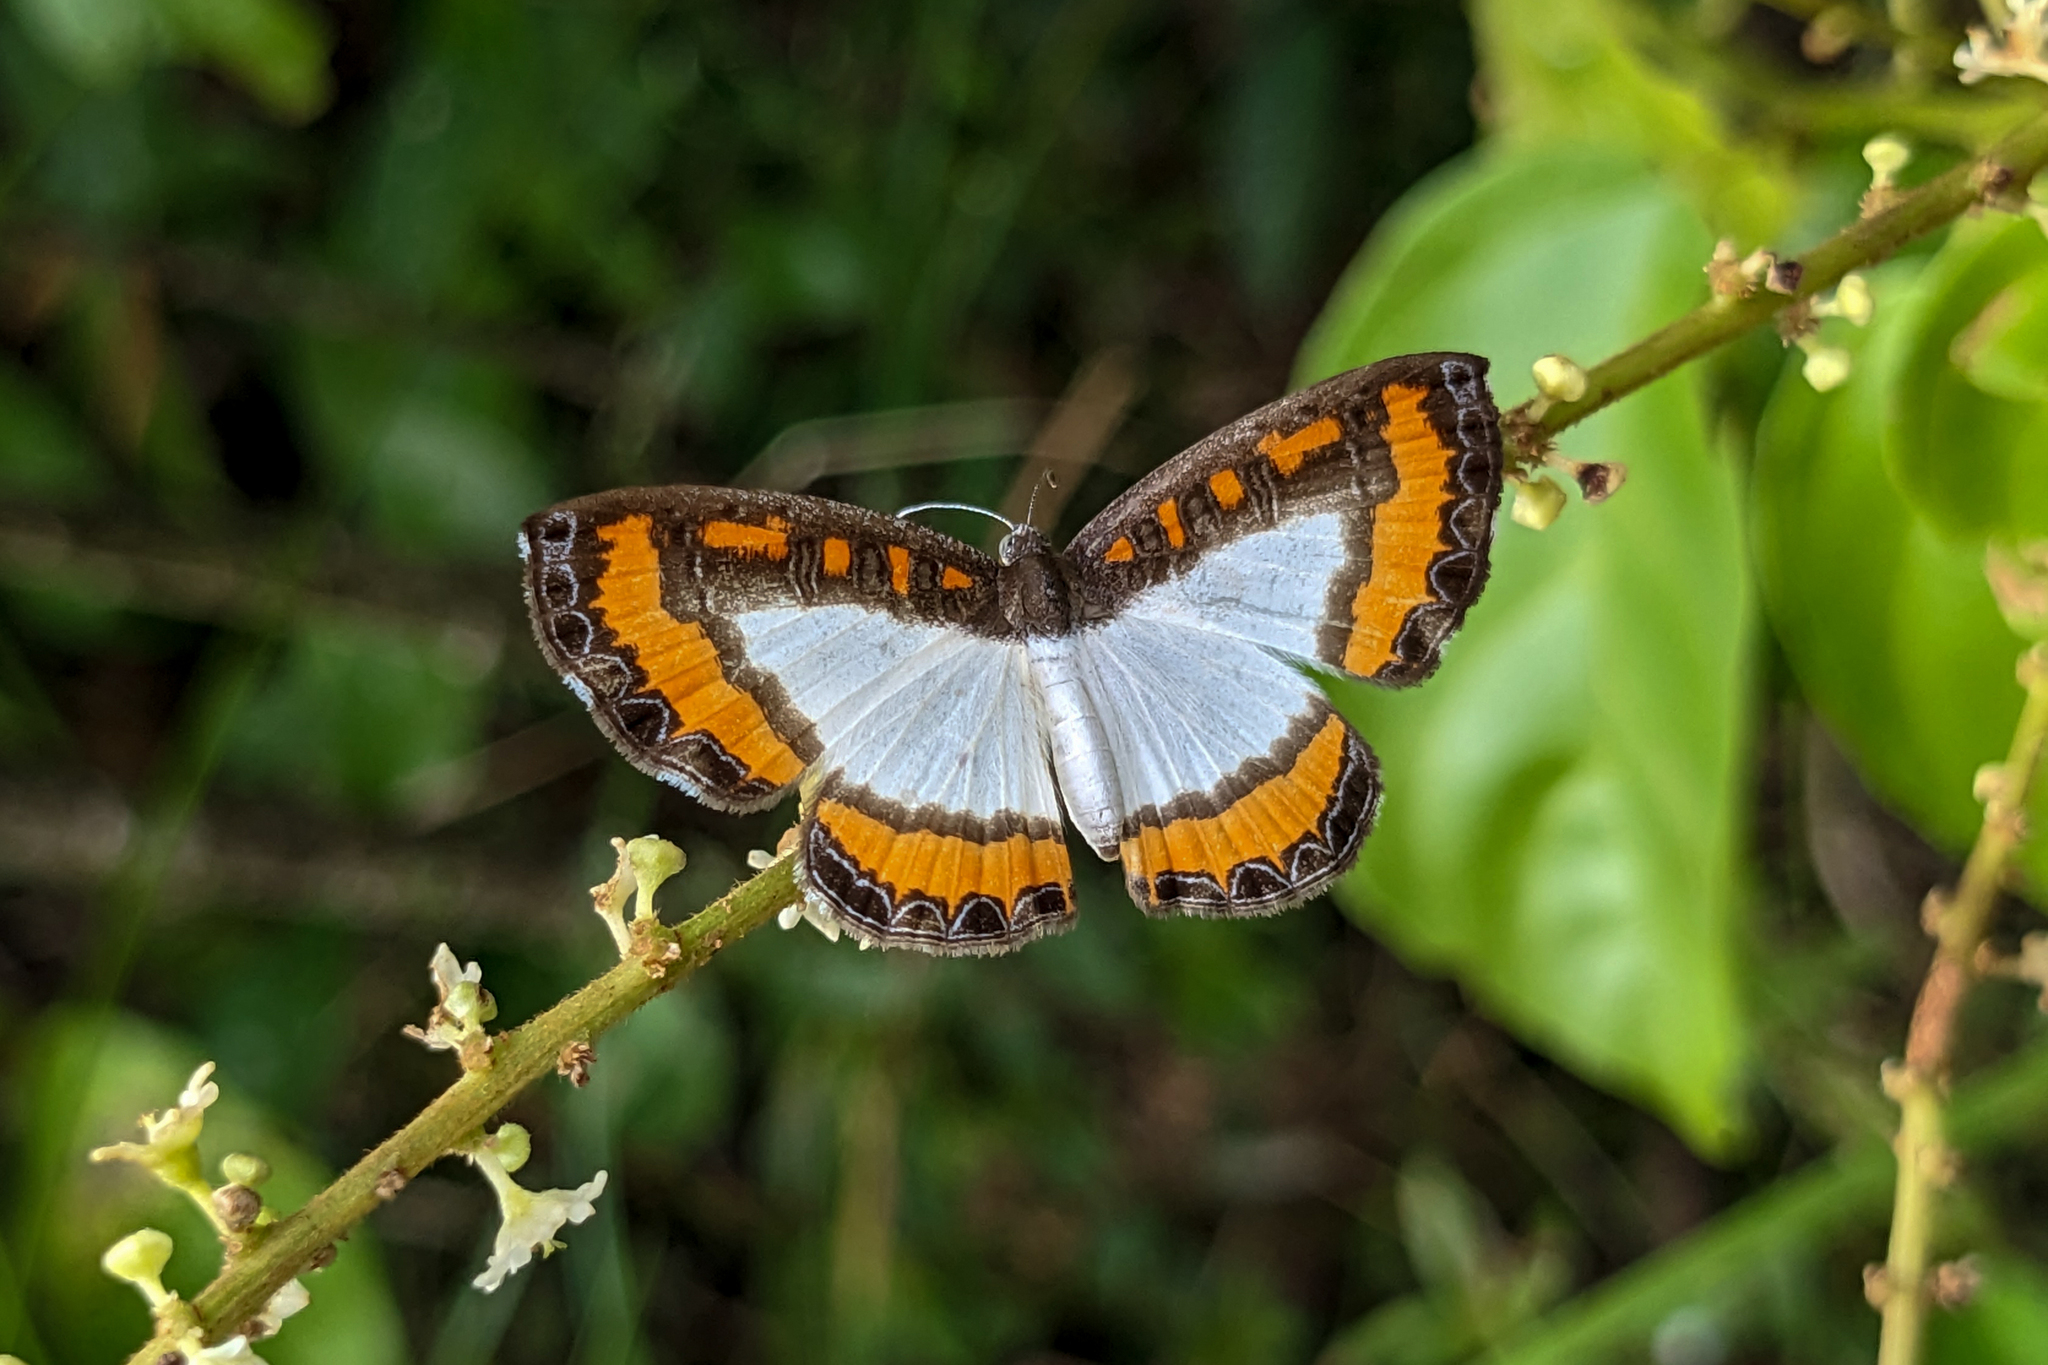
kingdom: Animalia
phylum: Arthropoda
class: Insecta
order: Lepidoptera
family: Riodinidae
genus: Nymula
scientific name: Nymula calyce
